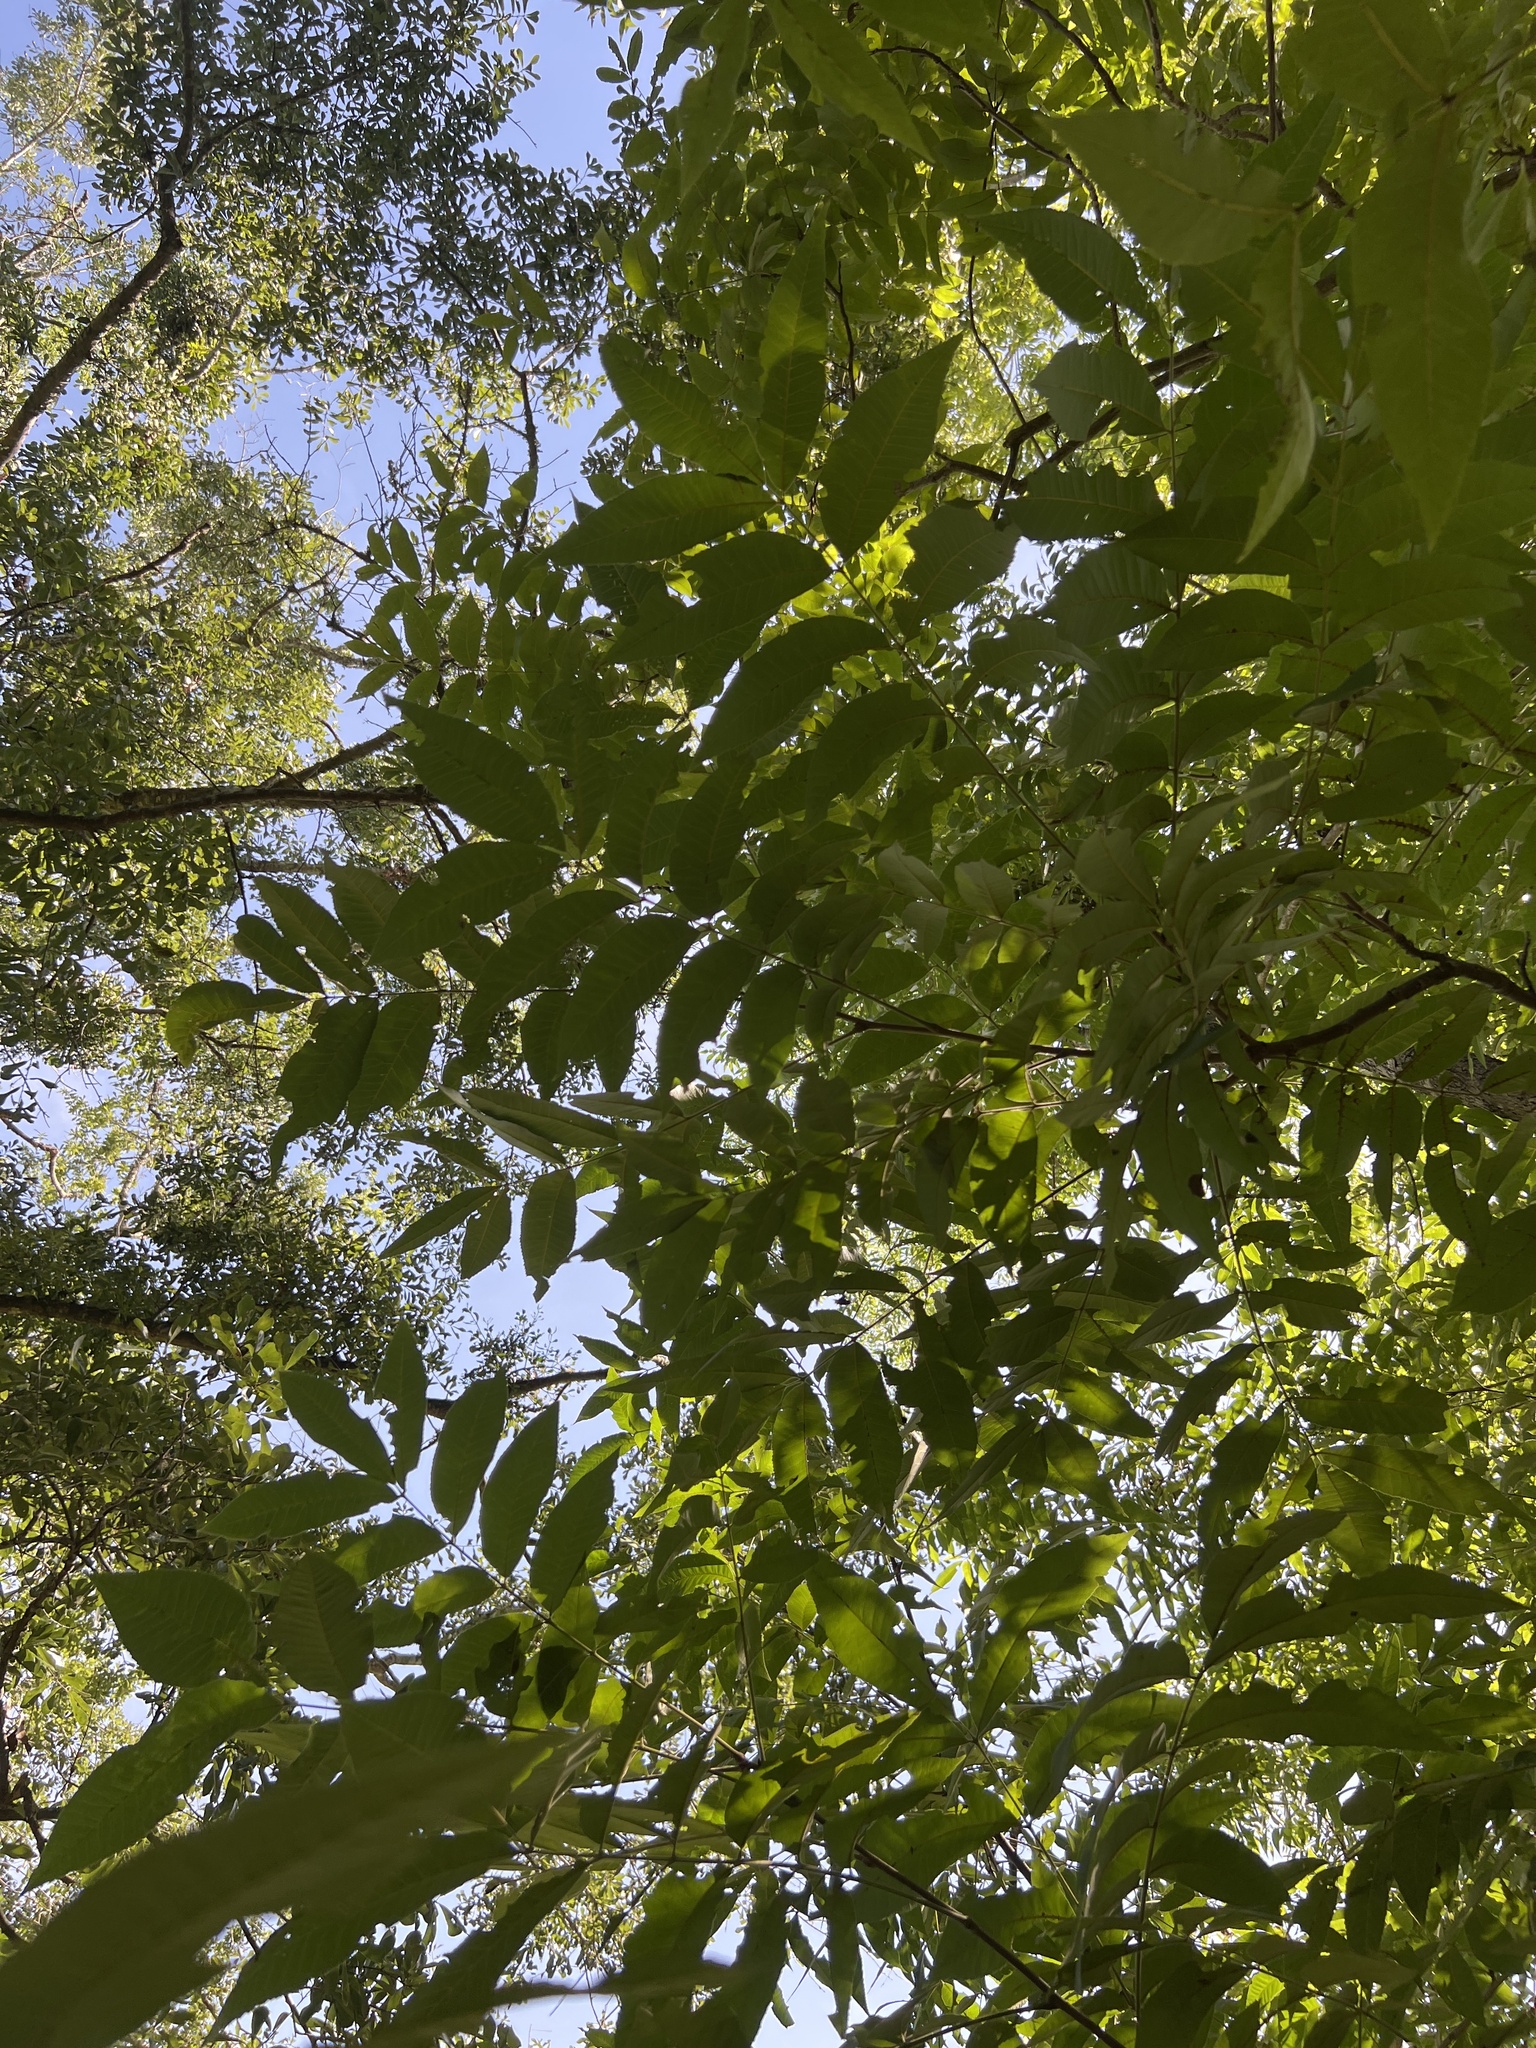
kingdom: Plantae
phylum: Tracheophyta
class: Magnoliopsida
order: Fagales
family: Juglandaceae
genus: Carya
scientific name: Carya illinoinensis
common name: Pecan
